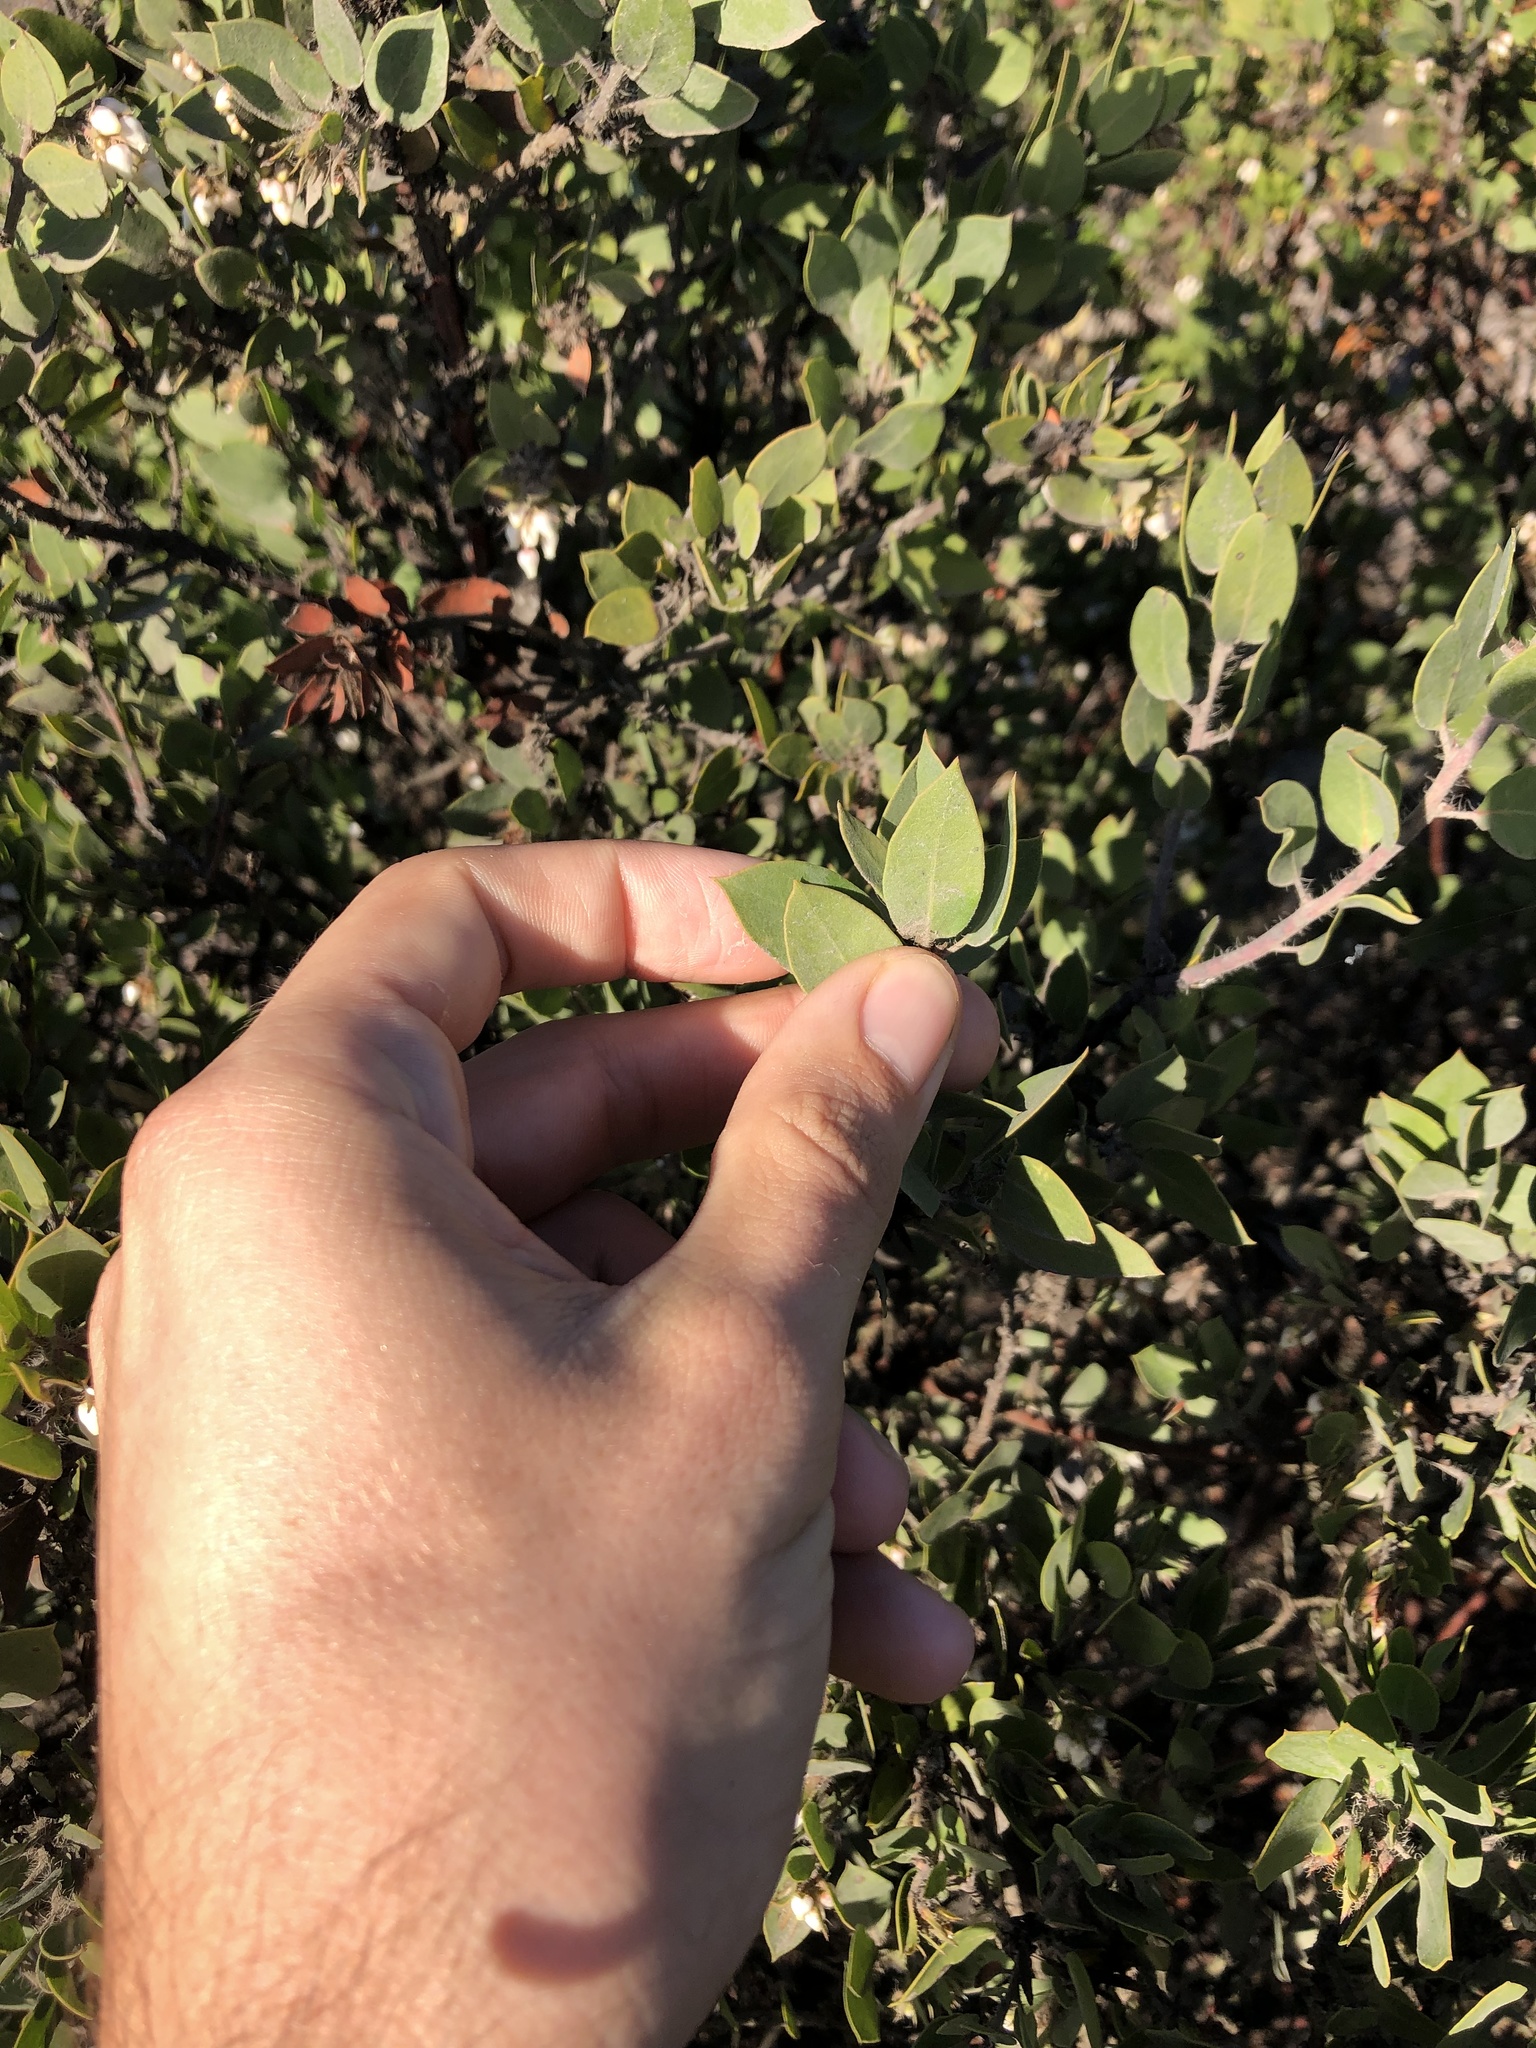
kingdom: Plantae
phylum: Tracheophyta
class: Magnoliopsida
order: Ericales
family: Ericaceae
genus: Arctostaphylos
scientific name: Arctostaphylos pilosula
